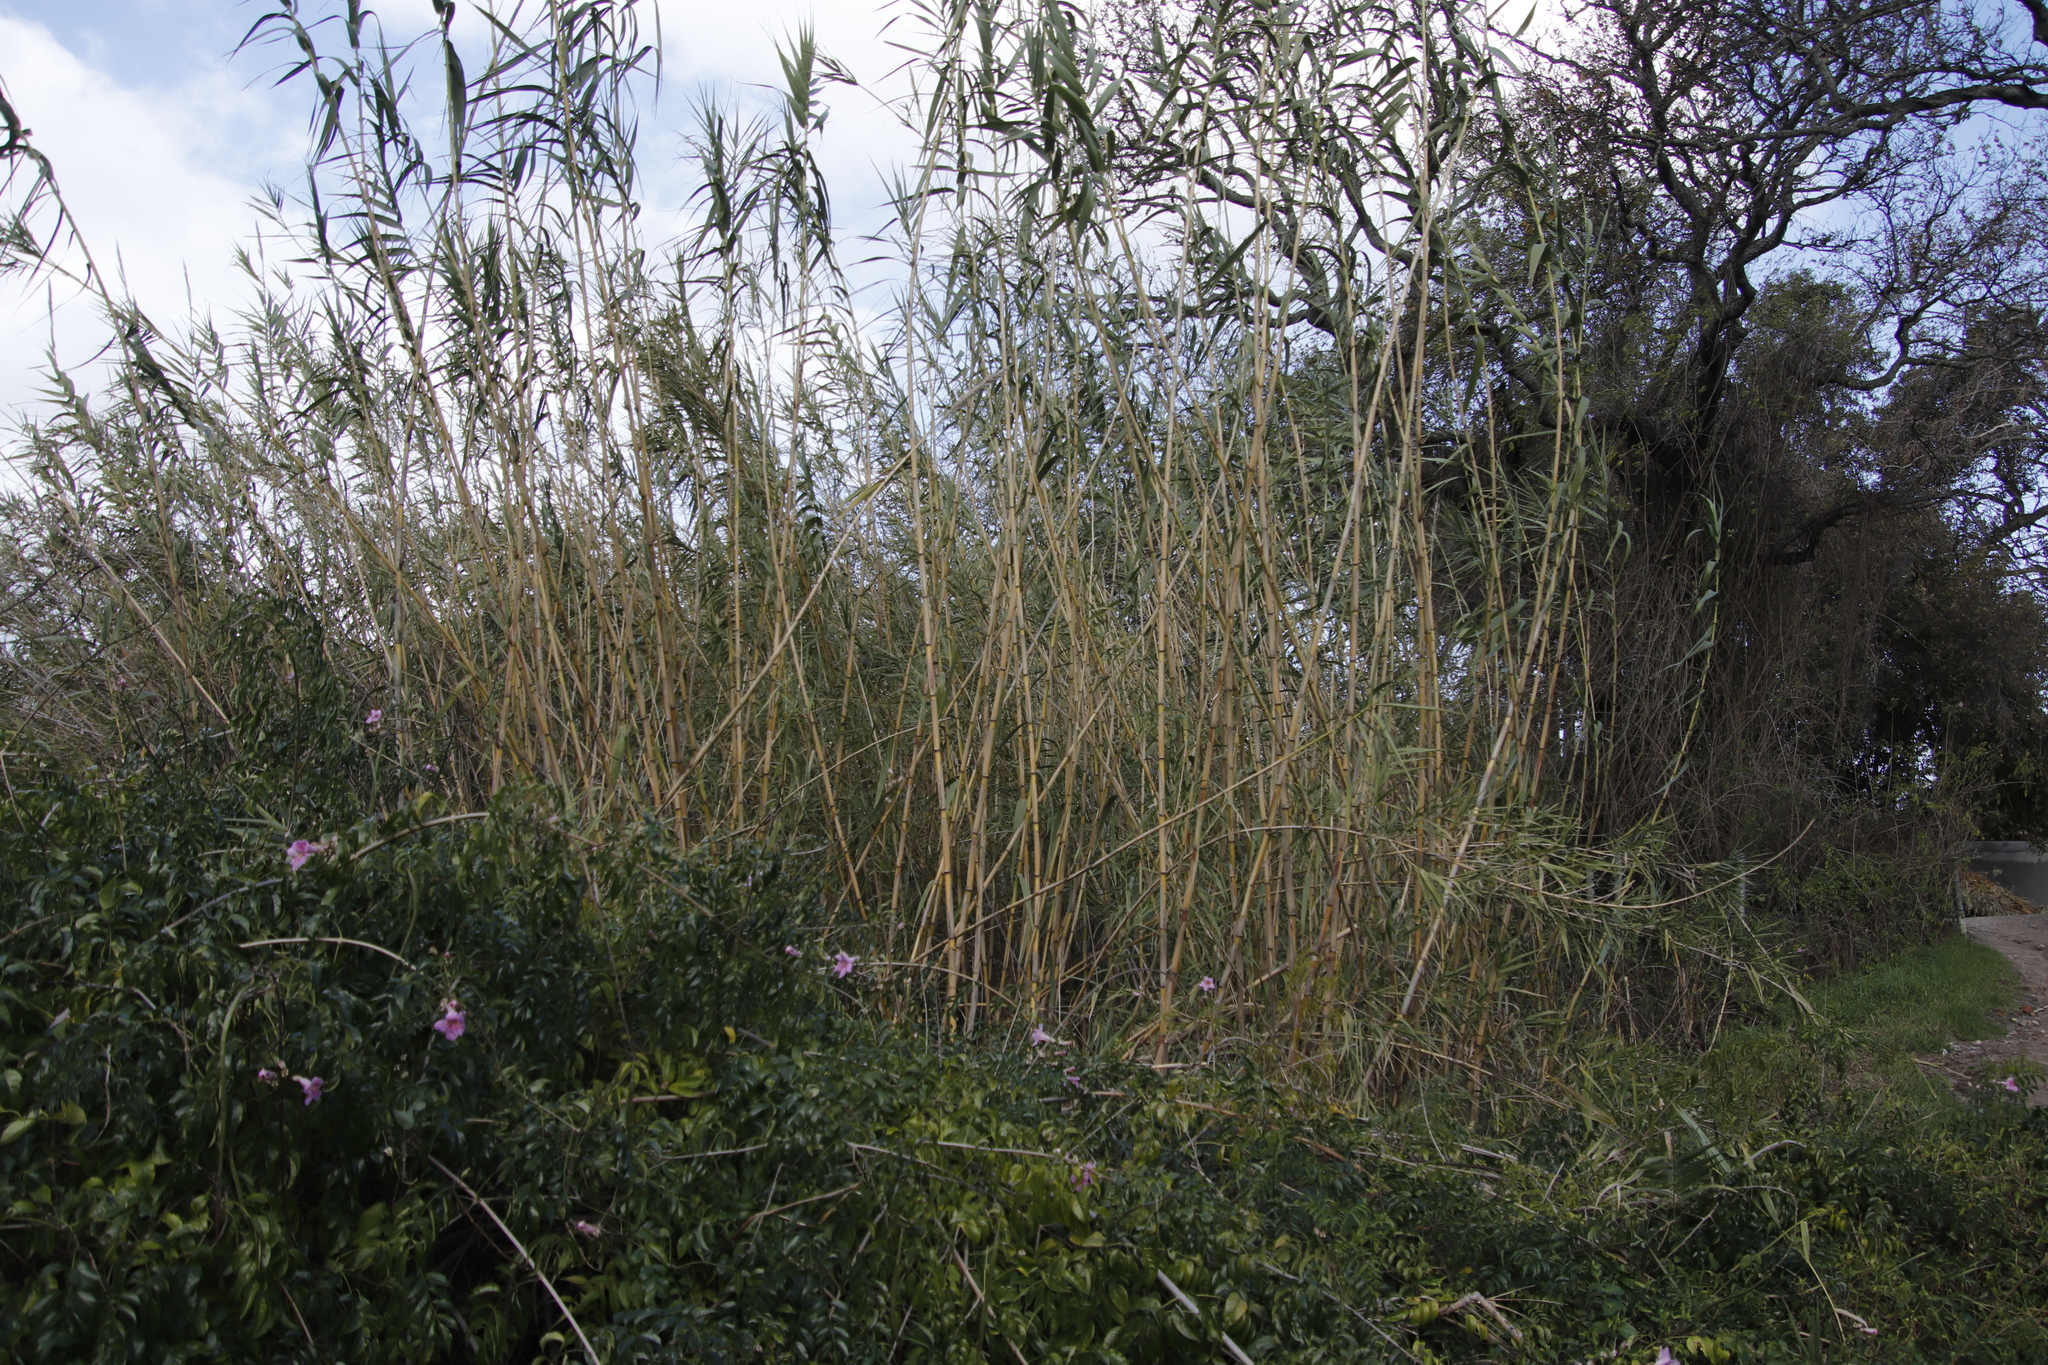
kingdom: Plantae
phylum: Tracheophyta
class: Liliopsida
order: Poales
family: Poaceae
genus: Arundo
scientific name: Arundo donax
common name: Giant reed
